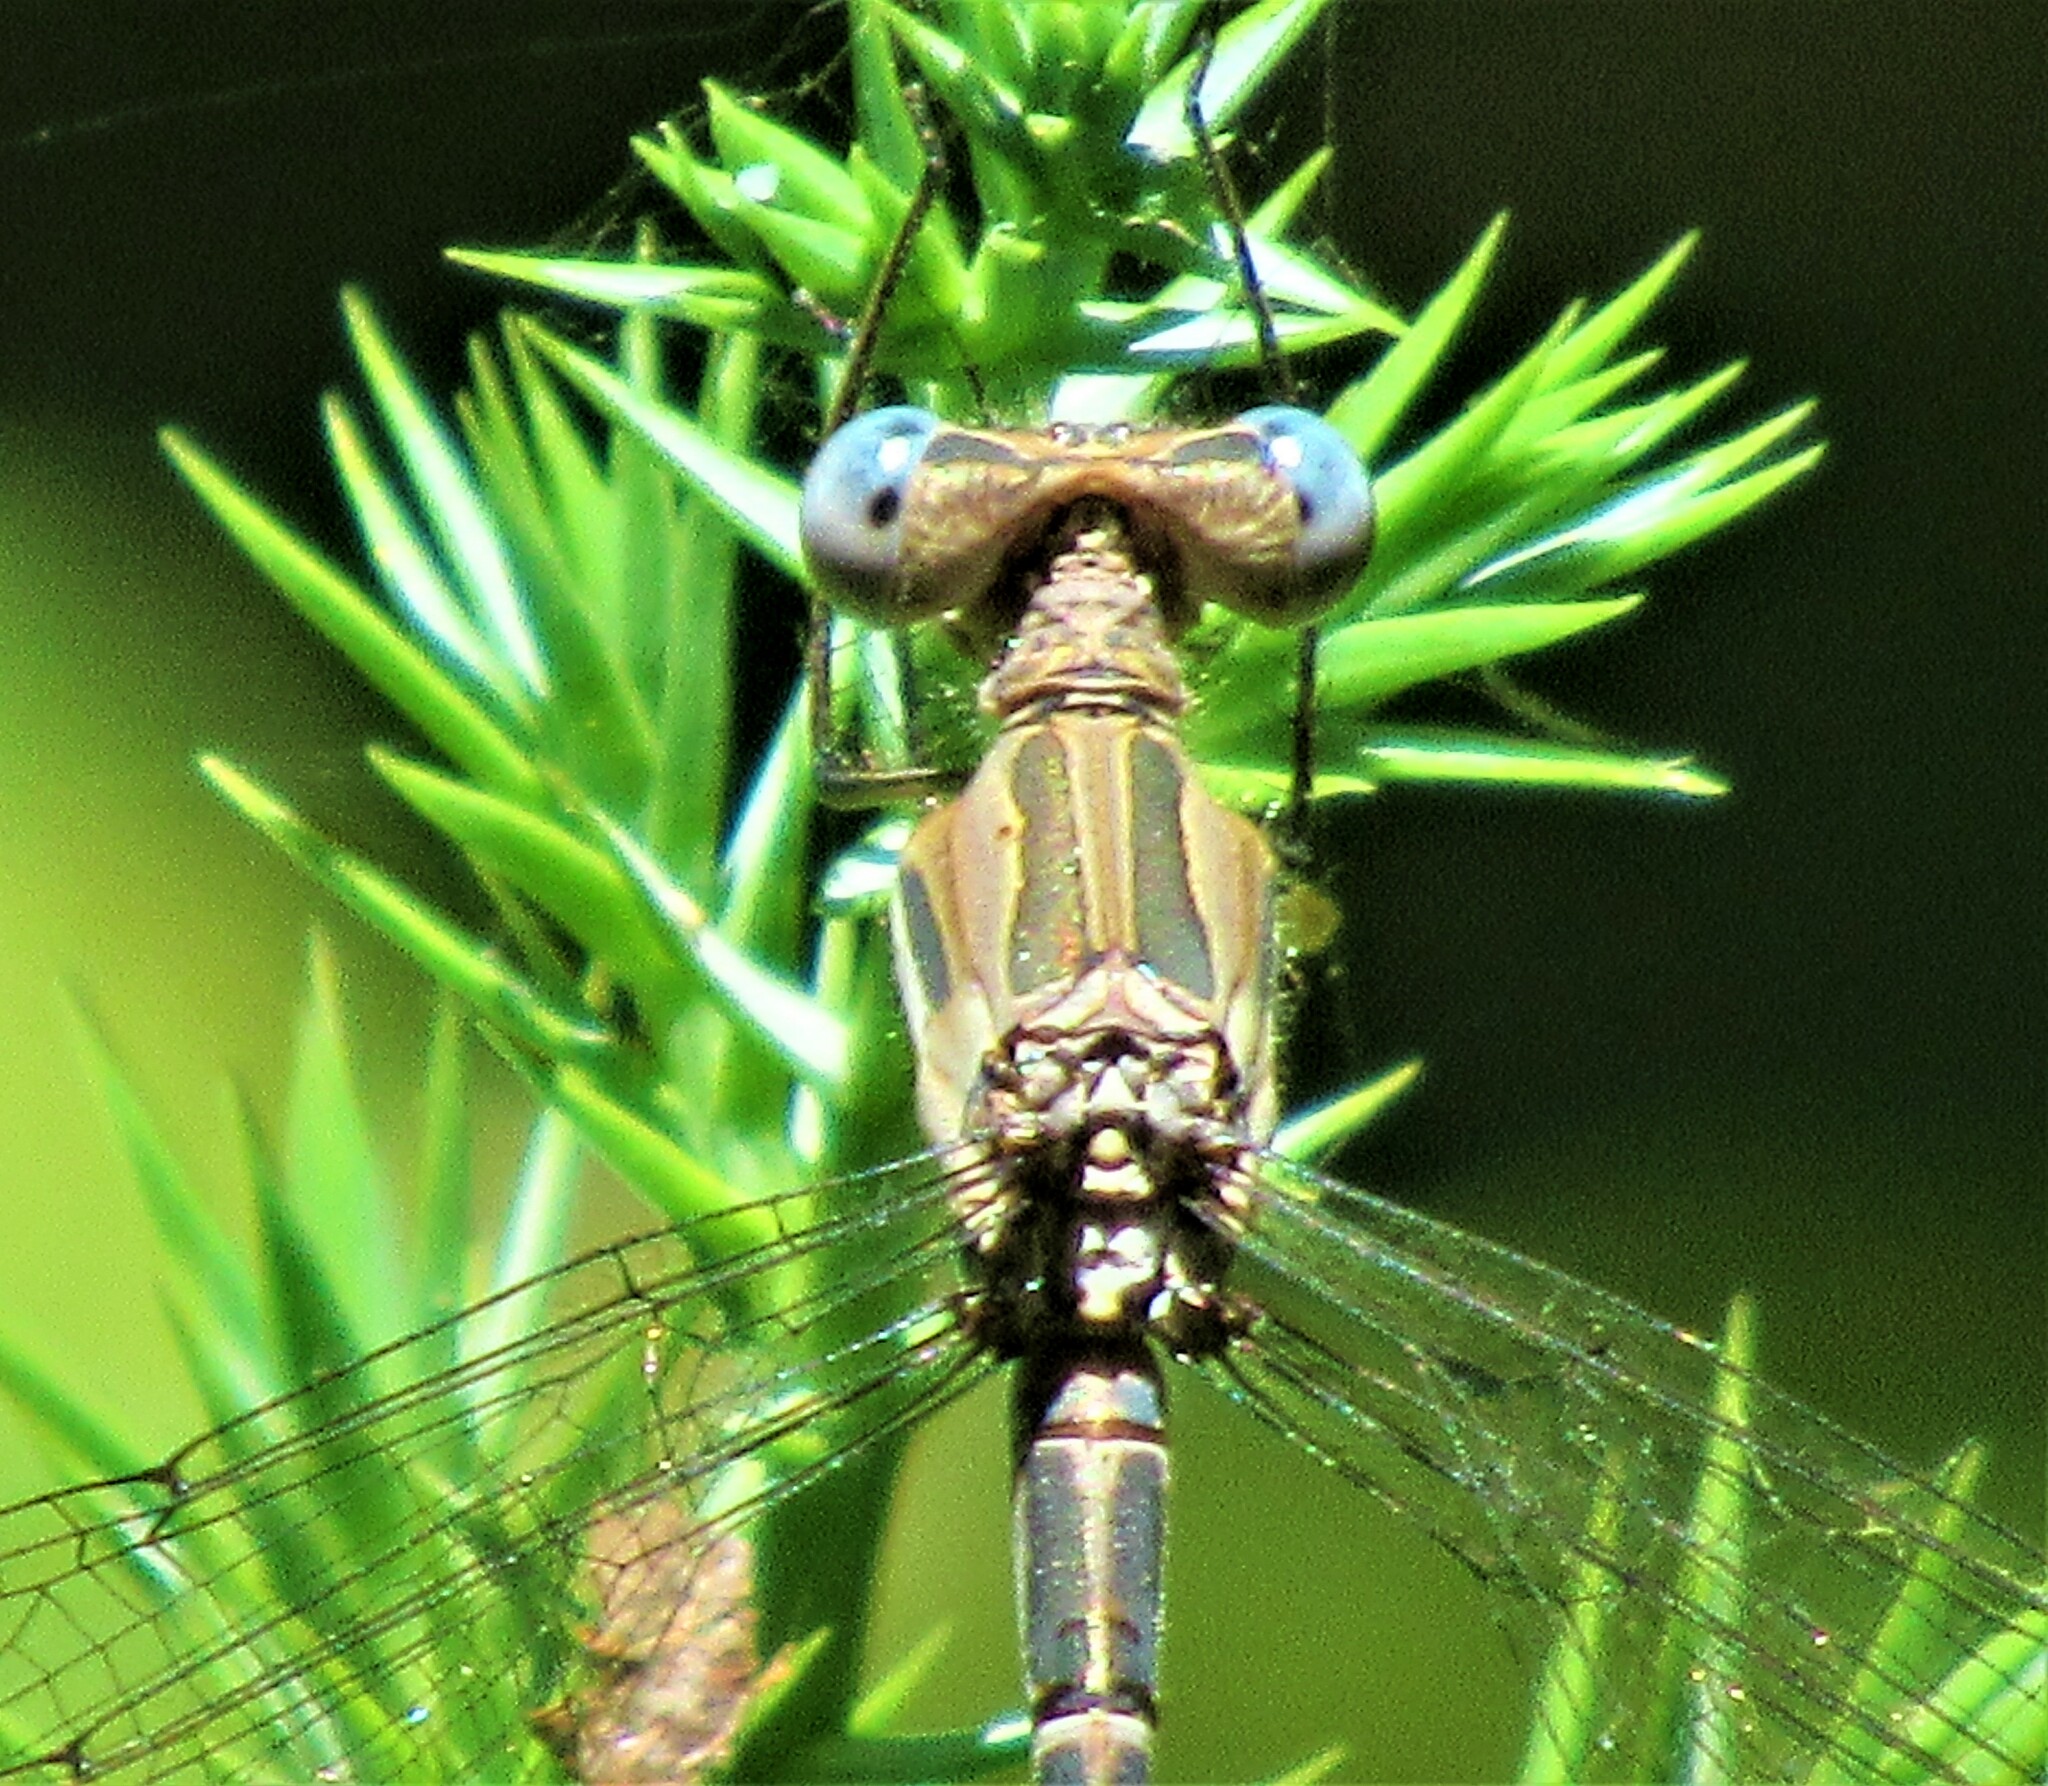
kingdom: Animalia
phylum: Arthropoda
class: Insecta
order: Odonata
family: Lestidae
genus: Archilestes
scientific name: Archilestes californicus
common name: California spreadwing
